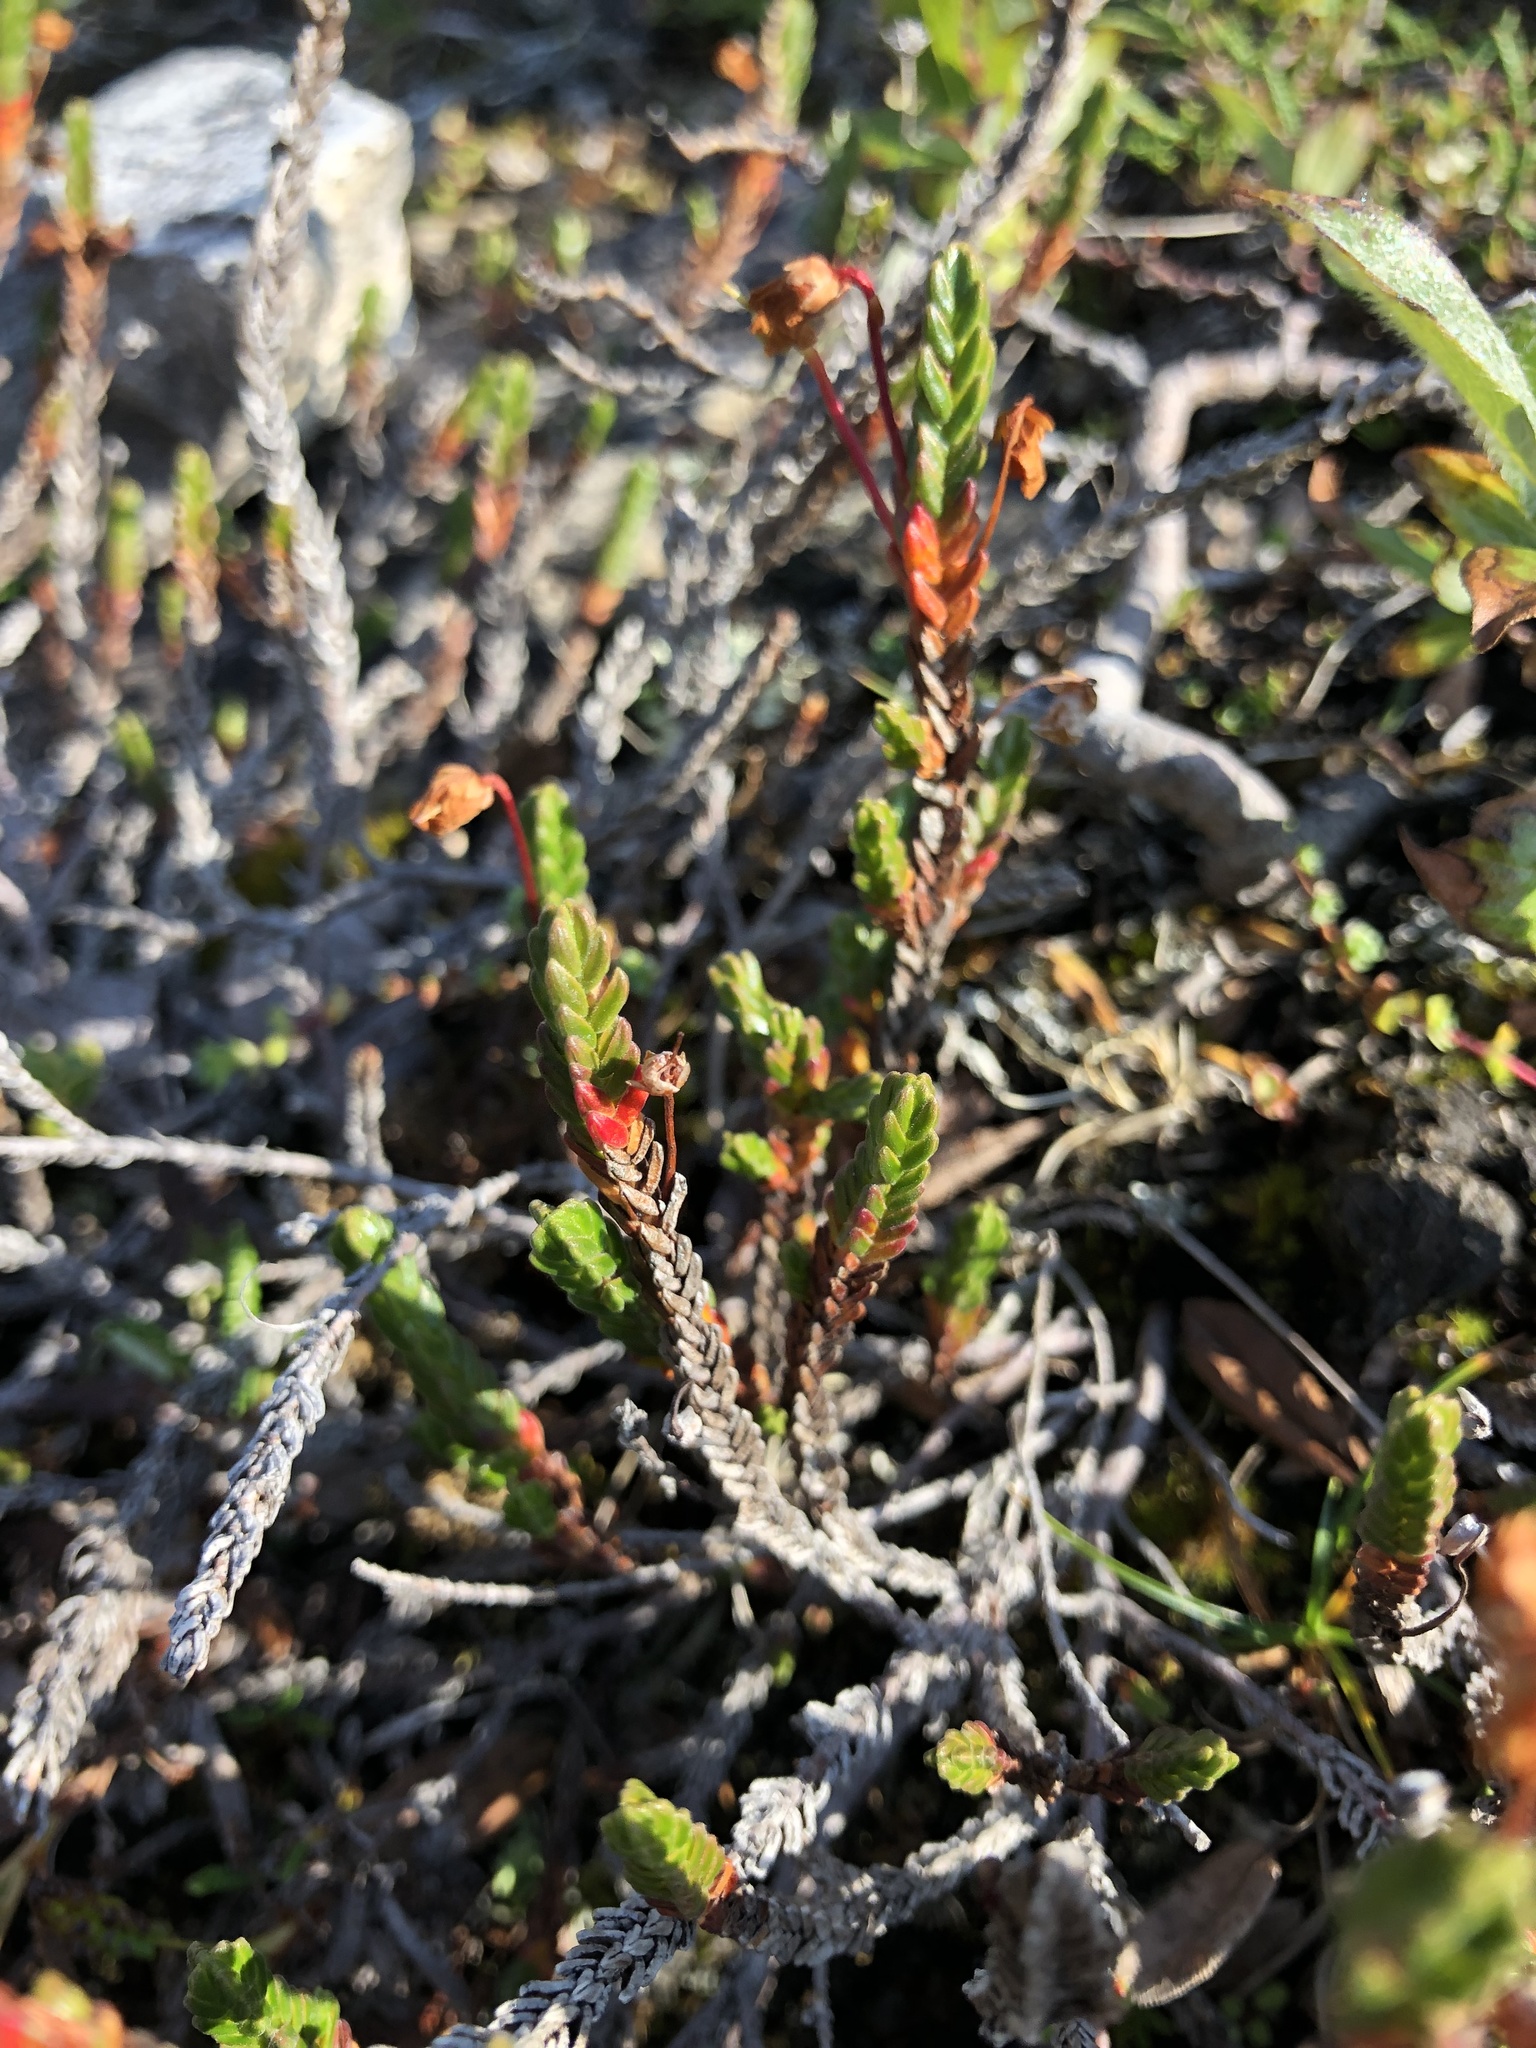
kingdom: Plantae
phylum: Tracheophyta
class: Magnoliopsida
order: Ericales
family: Ericaceae
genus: Cassiope
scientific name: Cassiope tetragona
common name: Arctic bell heather
